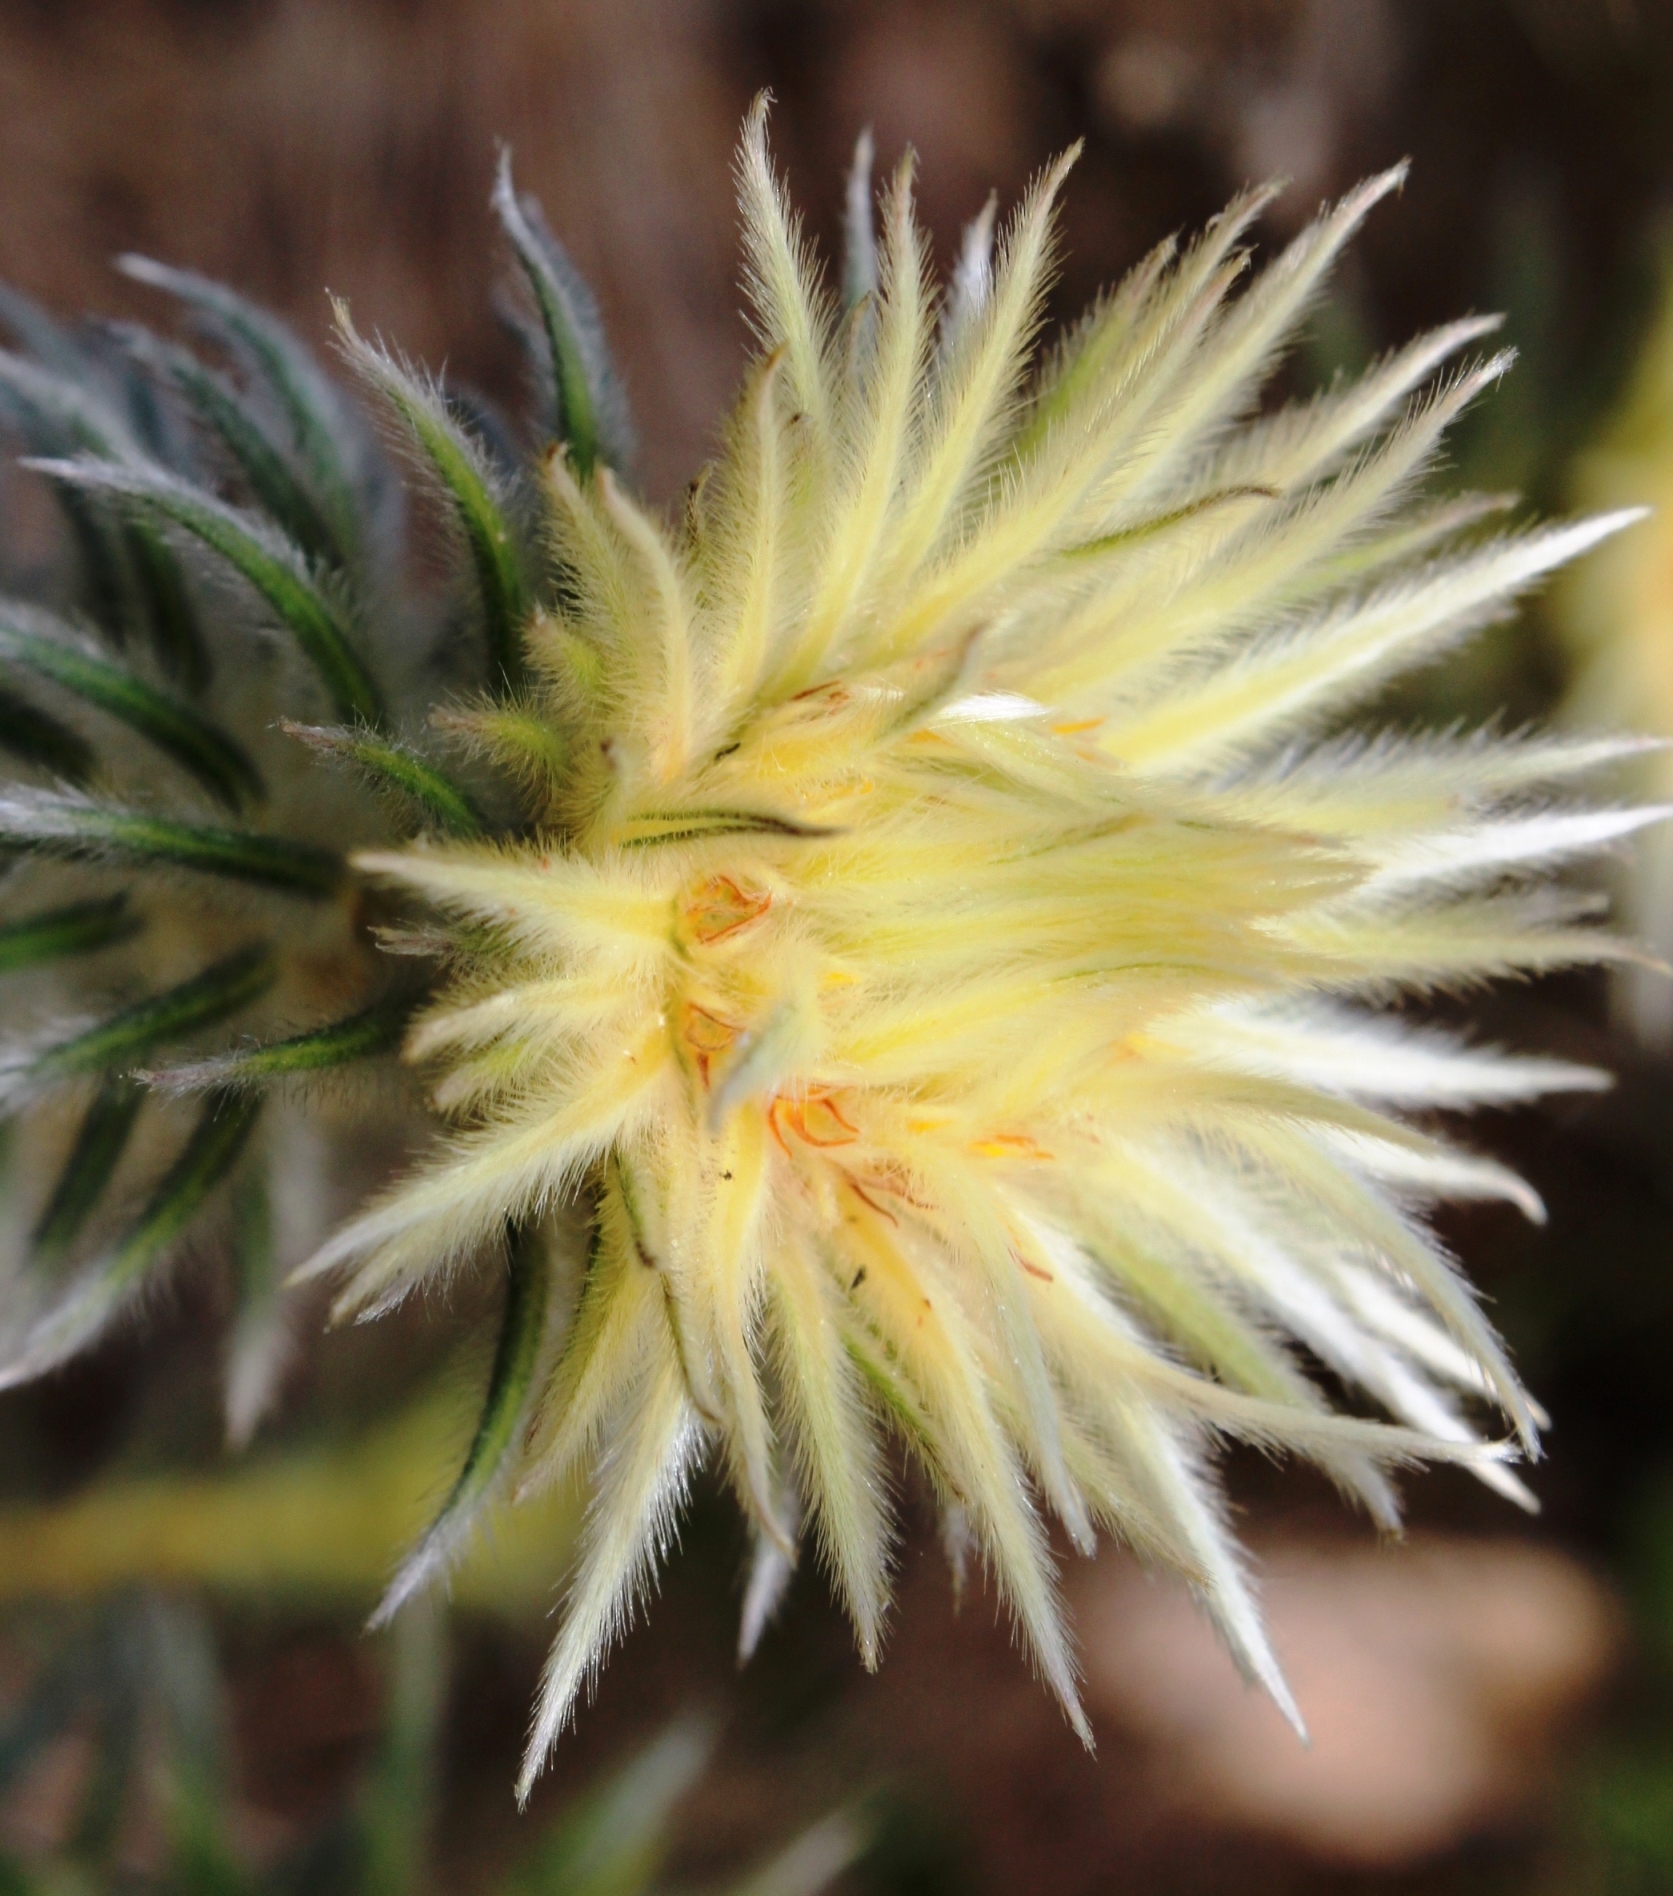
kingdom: Plantae
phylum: Tracheophyta
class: Magnoliopsida
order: Rosales
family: Rhamnaceae
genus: Phylica
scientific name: Phylica pubescens
